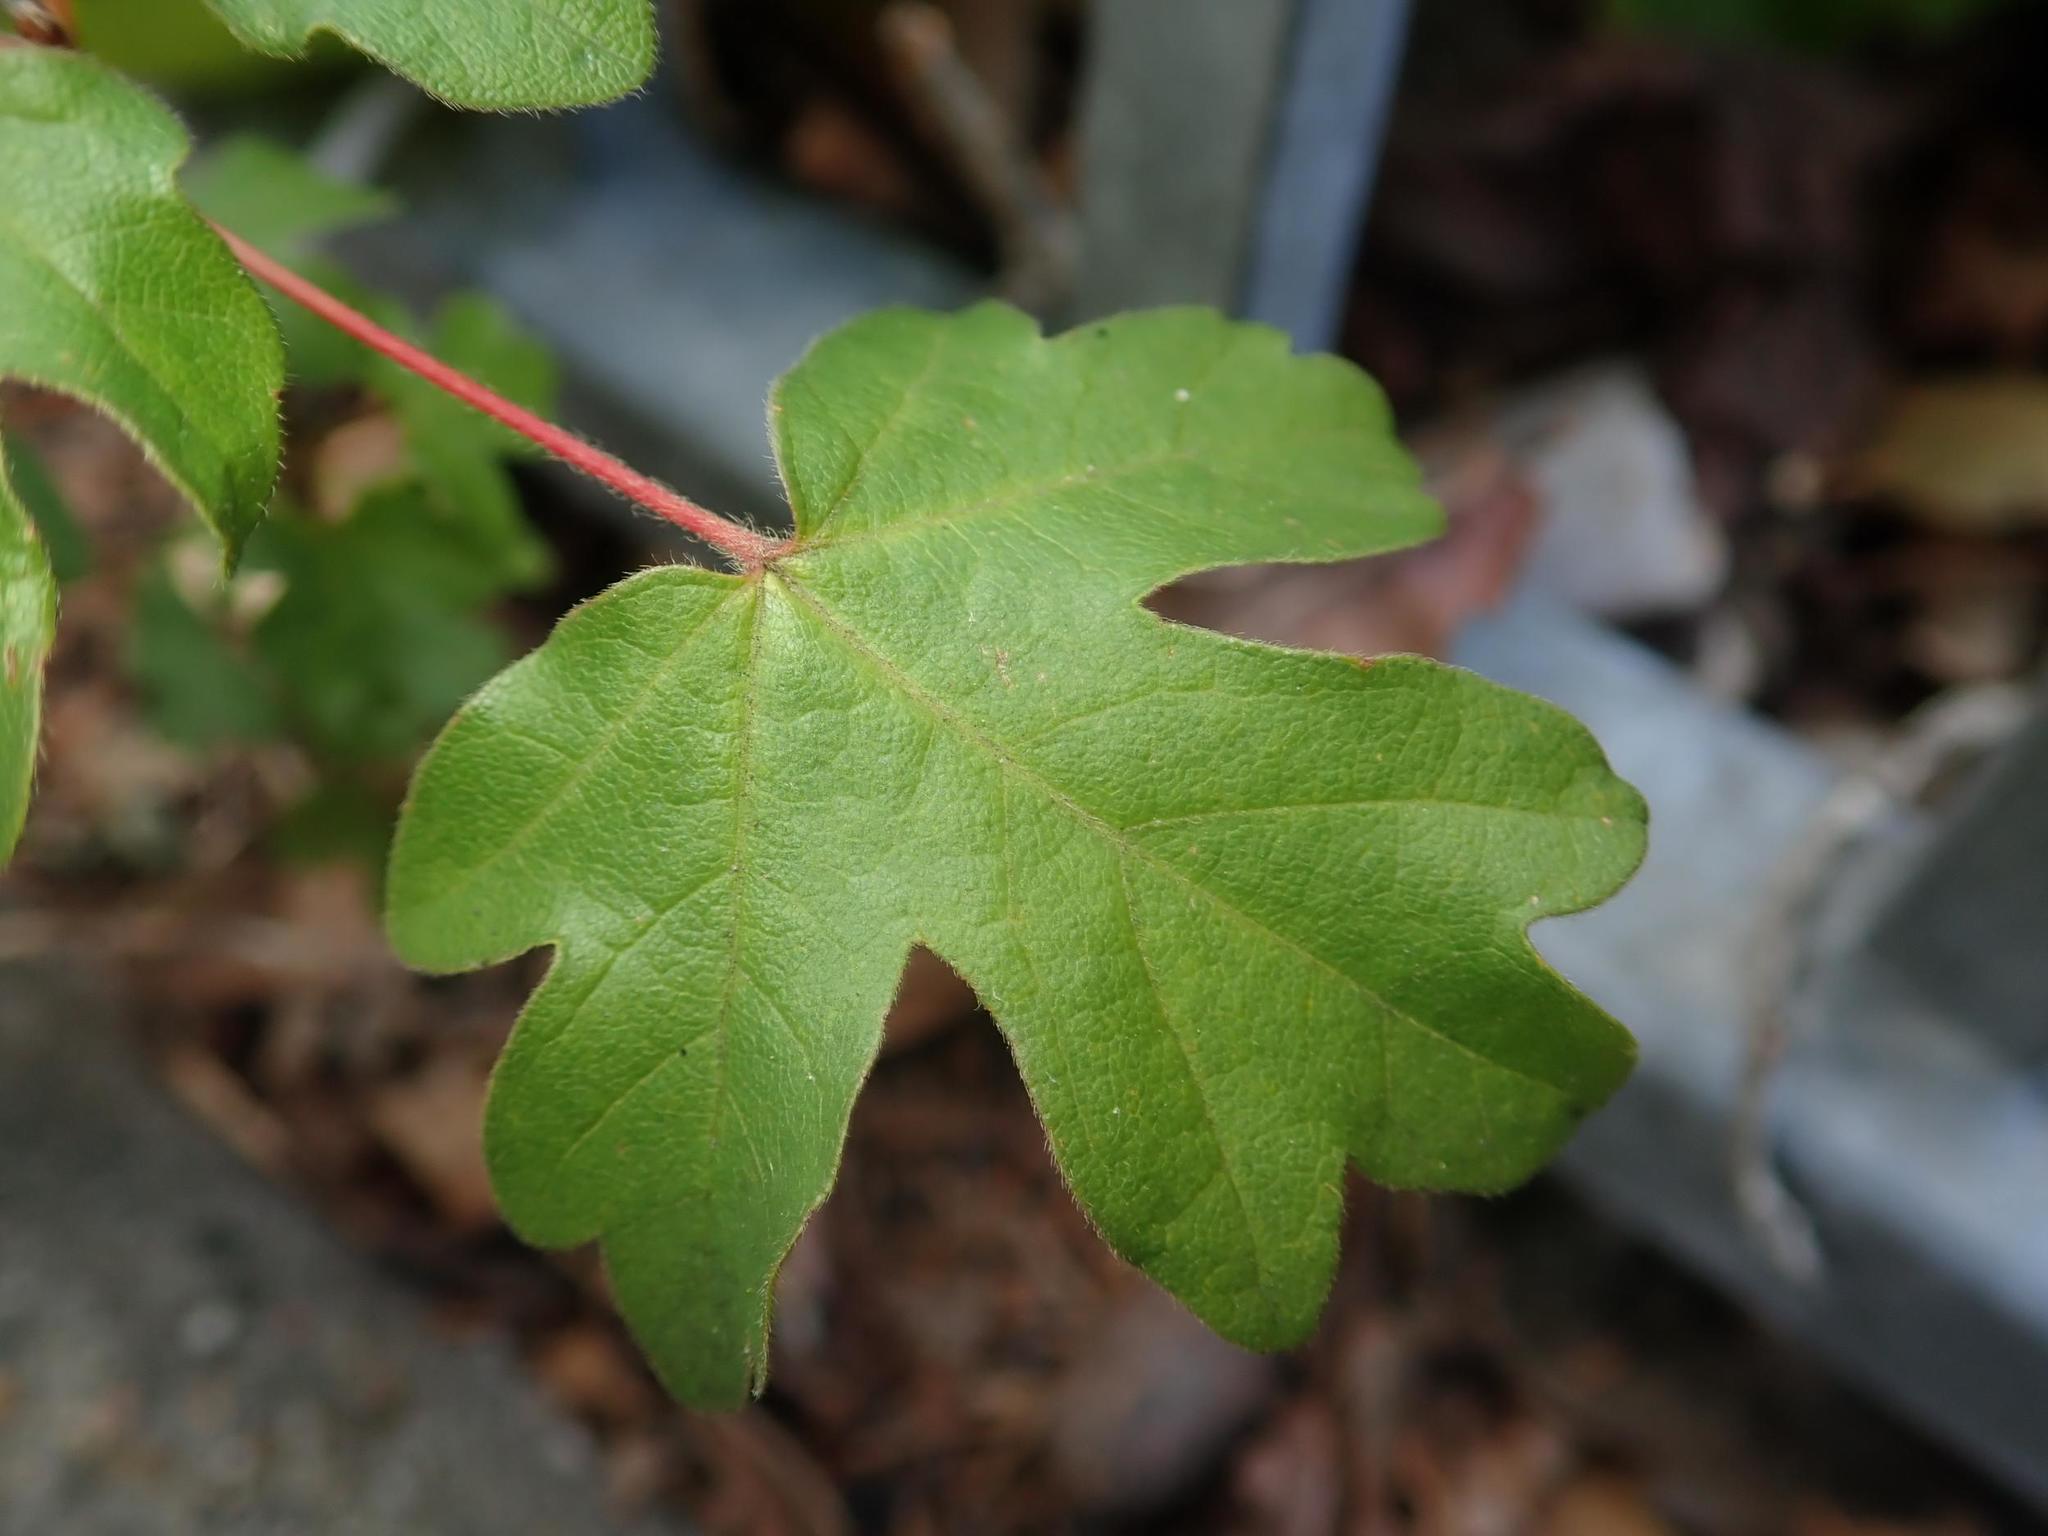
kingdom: Plantae
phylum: Tracheophyta
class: Magnoliopsida
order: Sapindales
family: Sapindaceae
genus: Acer
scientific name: Acer campestre
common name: Field maple
